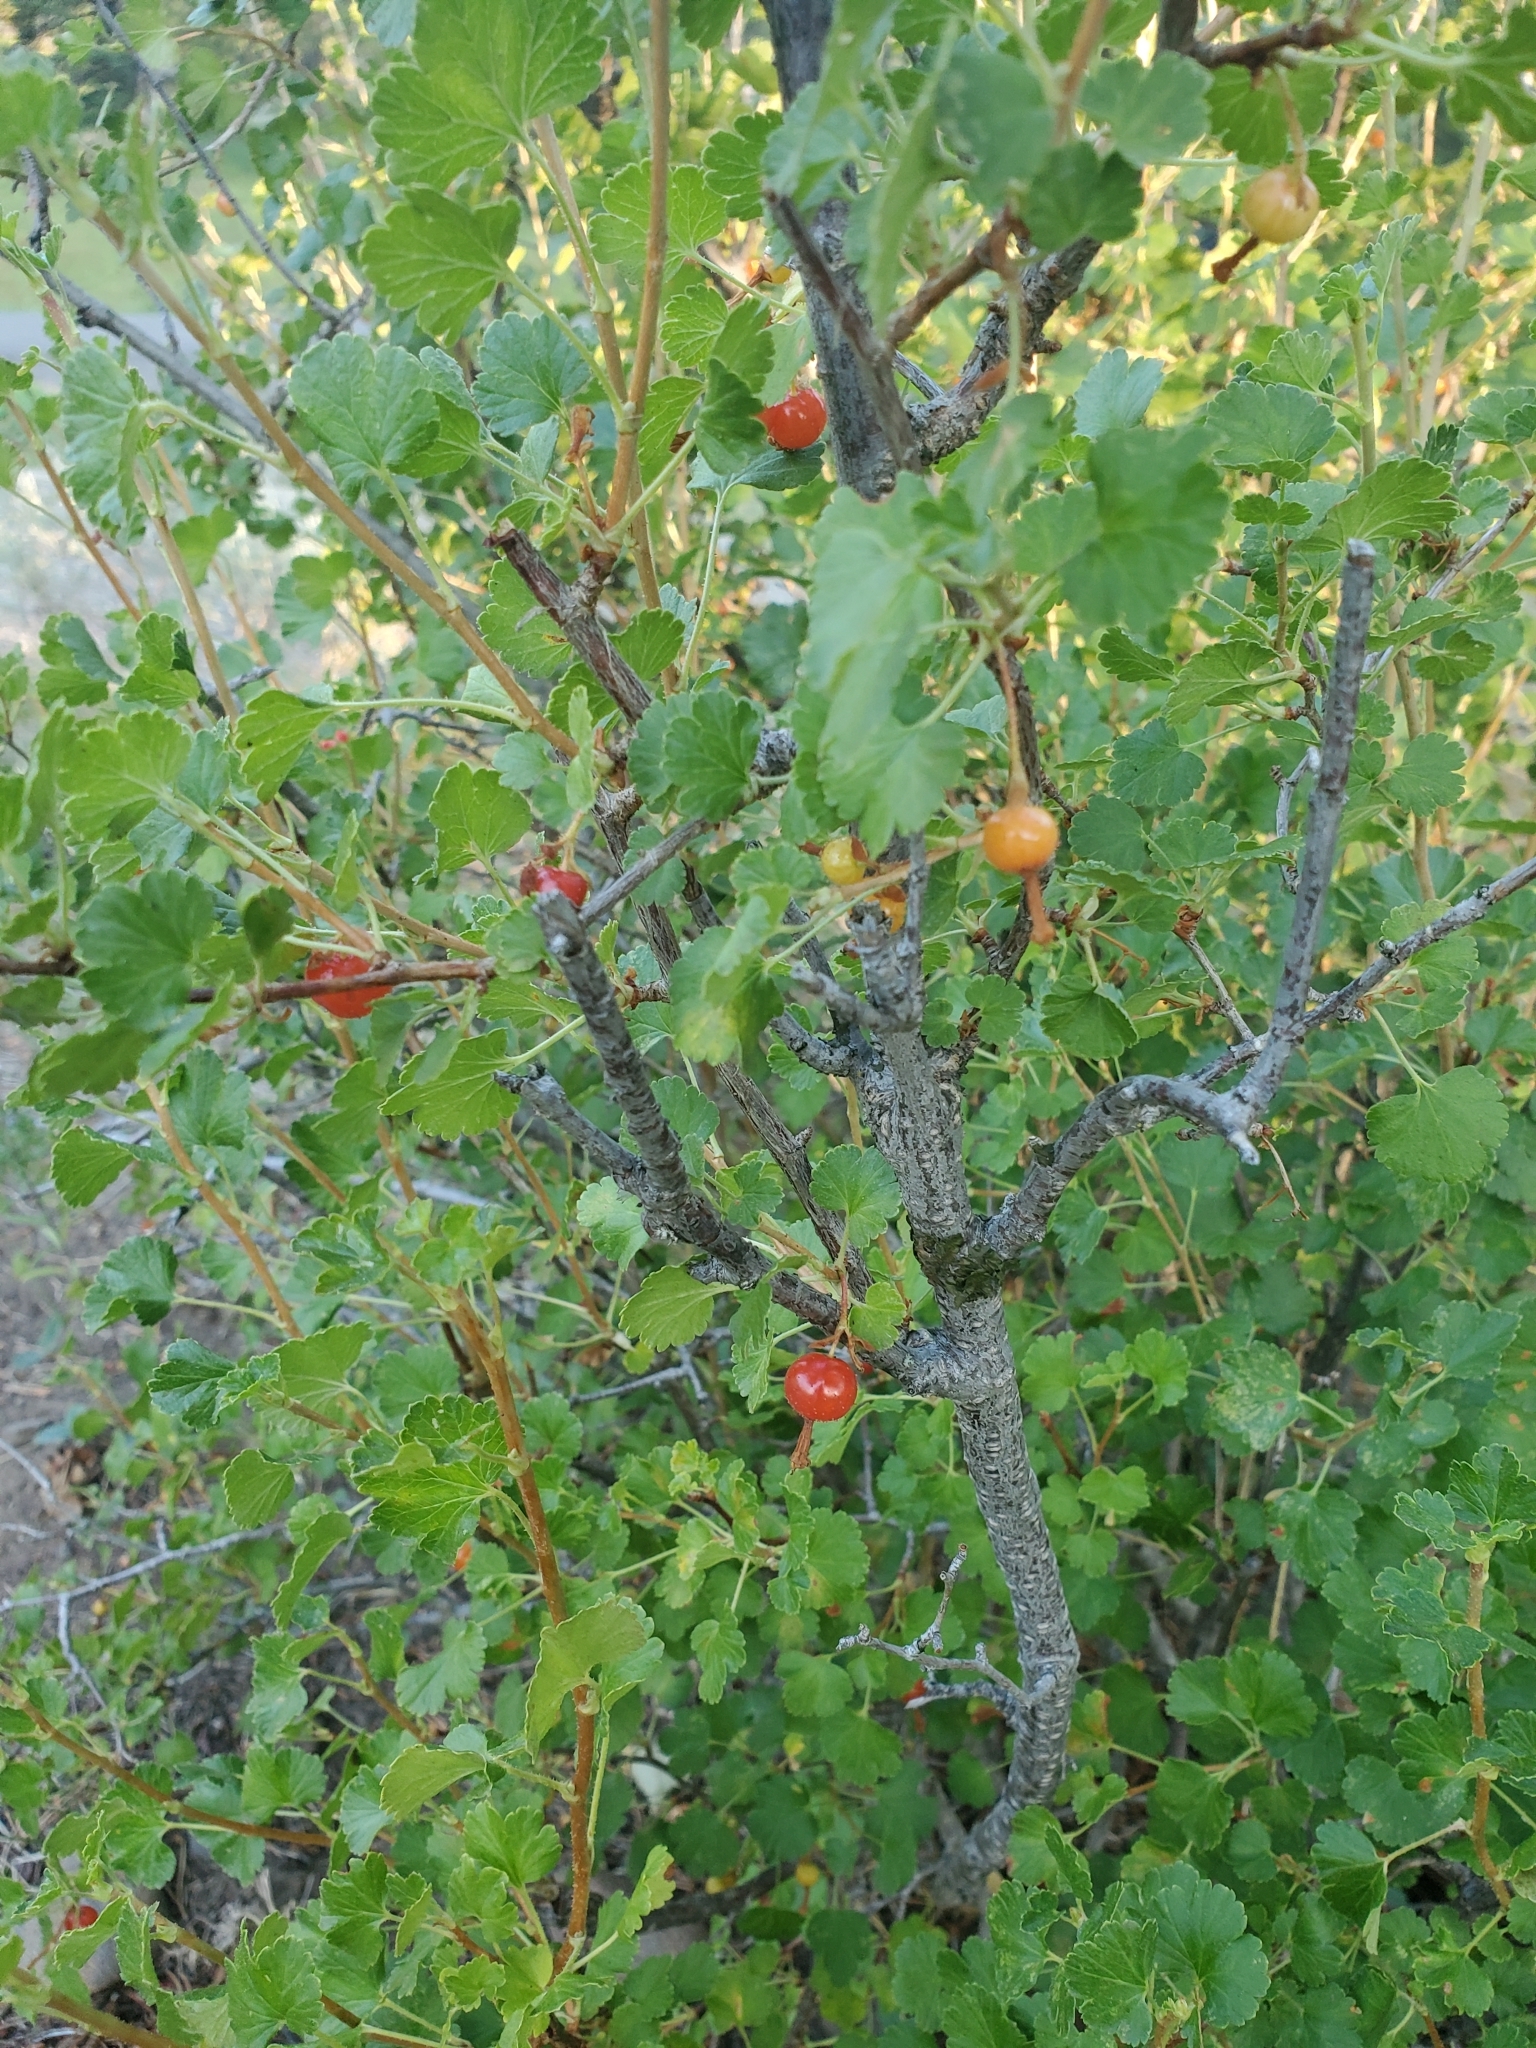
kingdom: Plantae
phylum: Tracheophyta
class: Magnoliopsida
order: Saxifragales
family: Grossulariaceae
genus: Ribes
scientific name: Ribes cereum
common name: Wax currant
